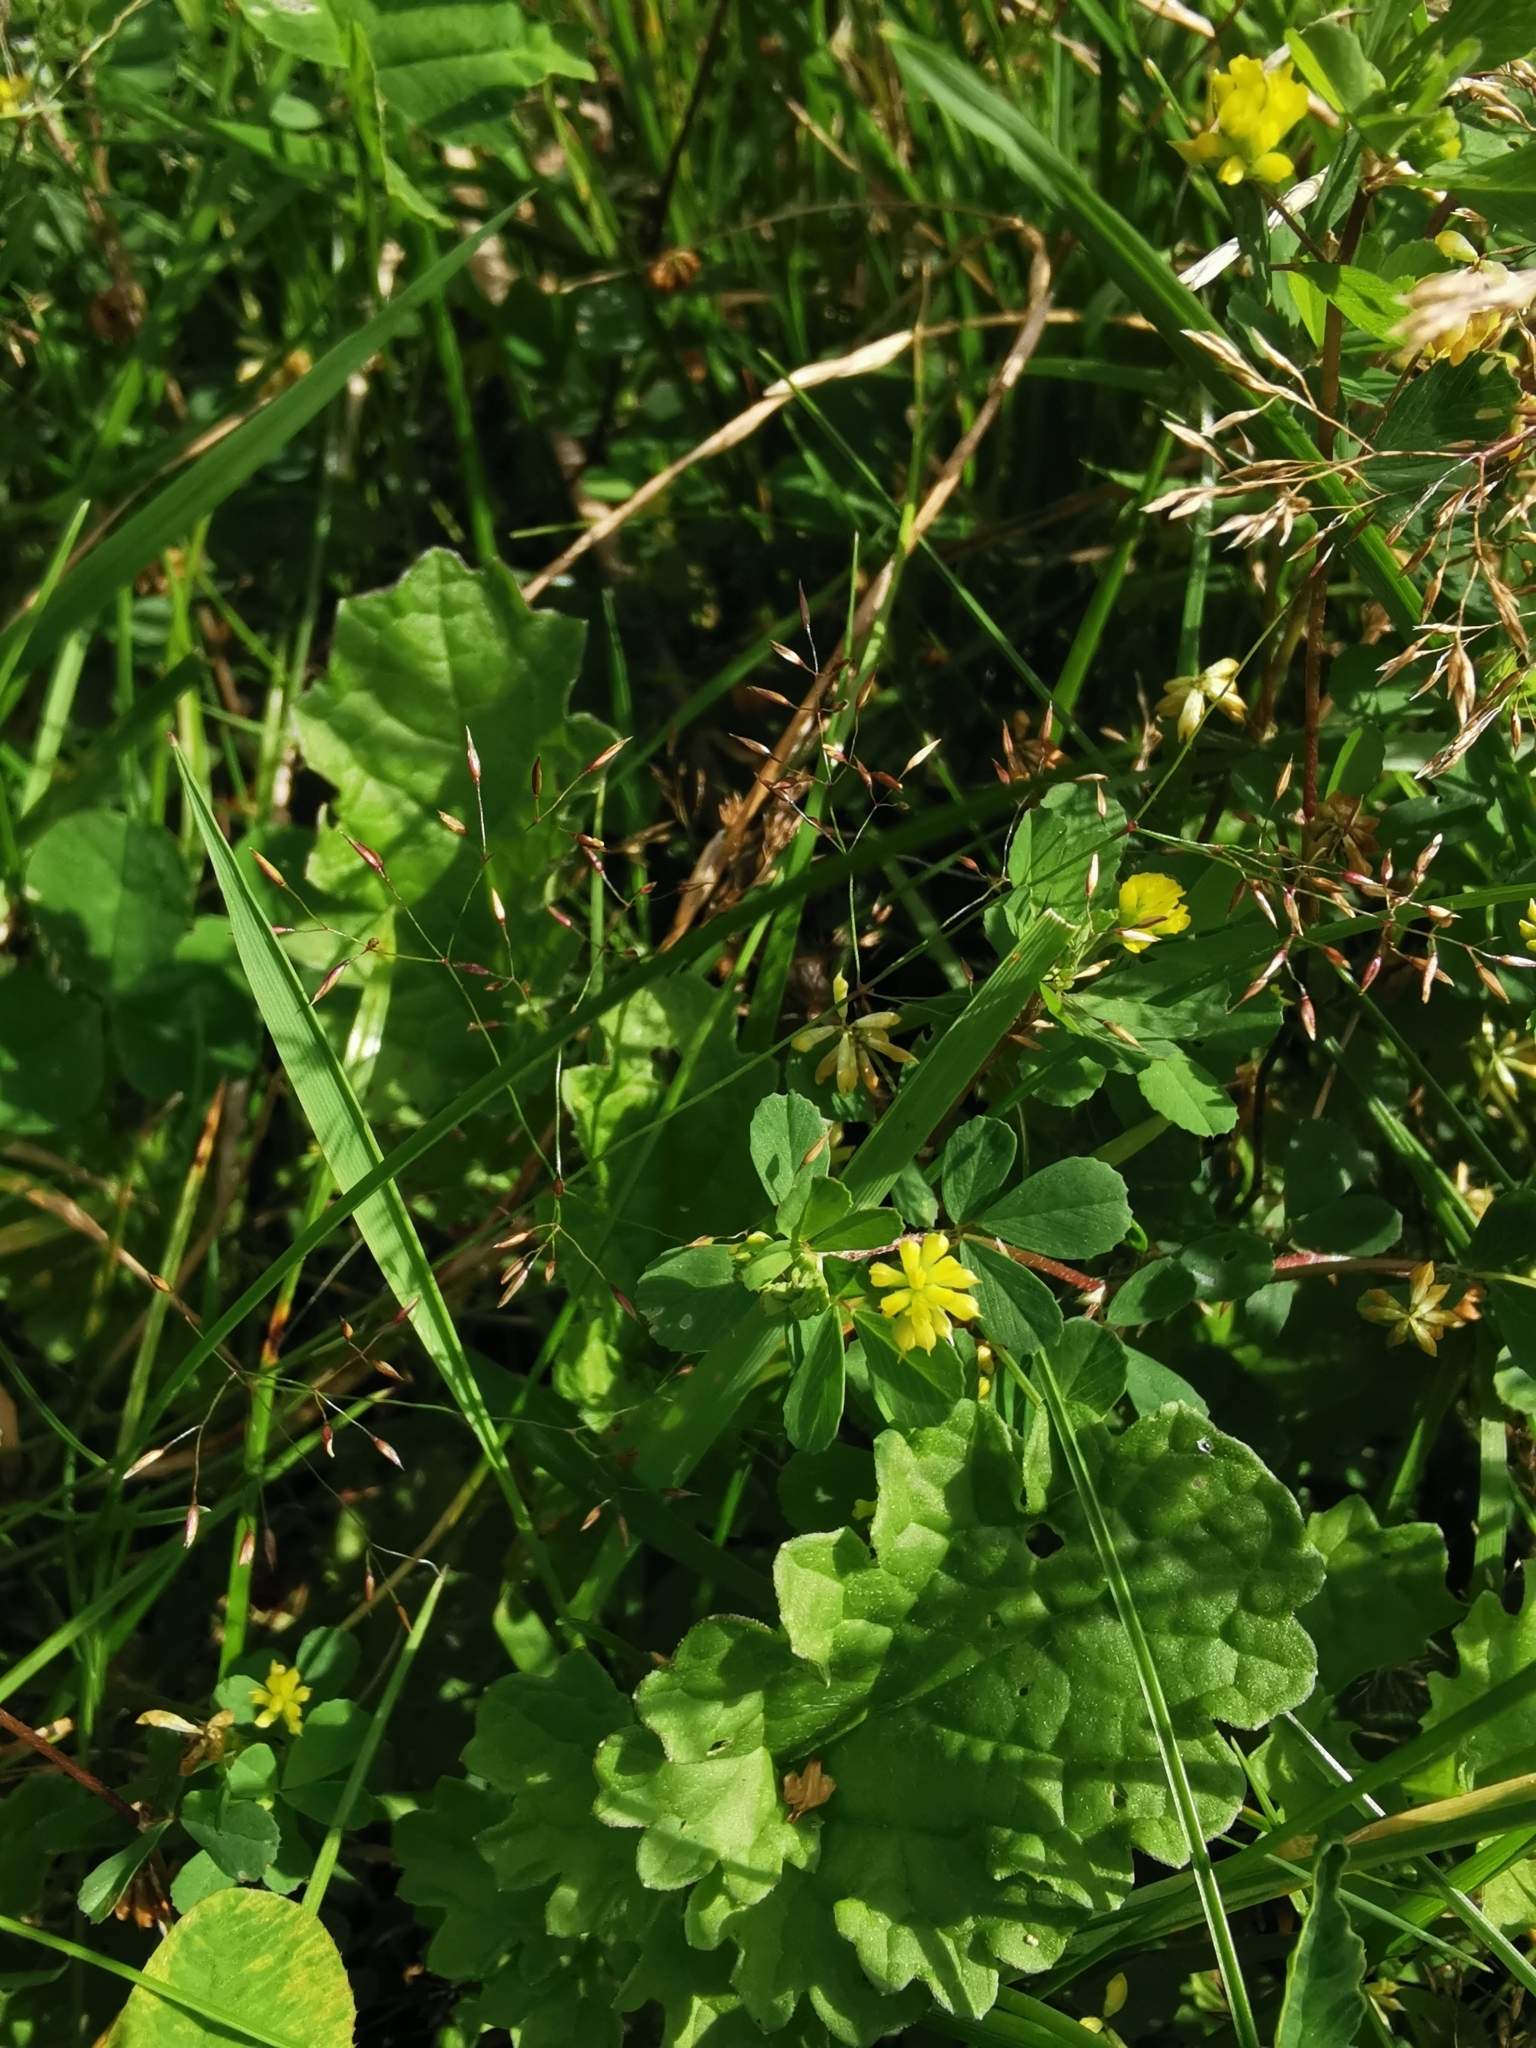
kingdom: Plantae
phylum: Tracheophyta
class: Magnoliopsida
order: Fabales
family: Fabaceae
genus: Trifolium
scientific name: Trifolium dubium
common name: Suckling clover
